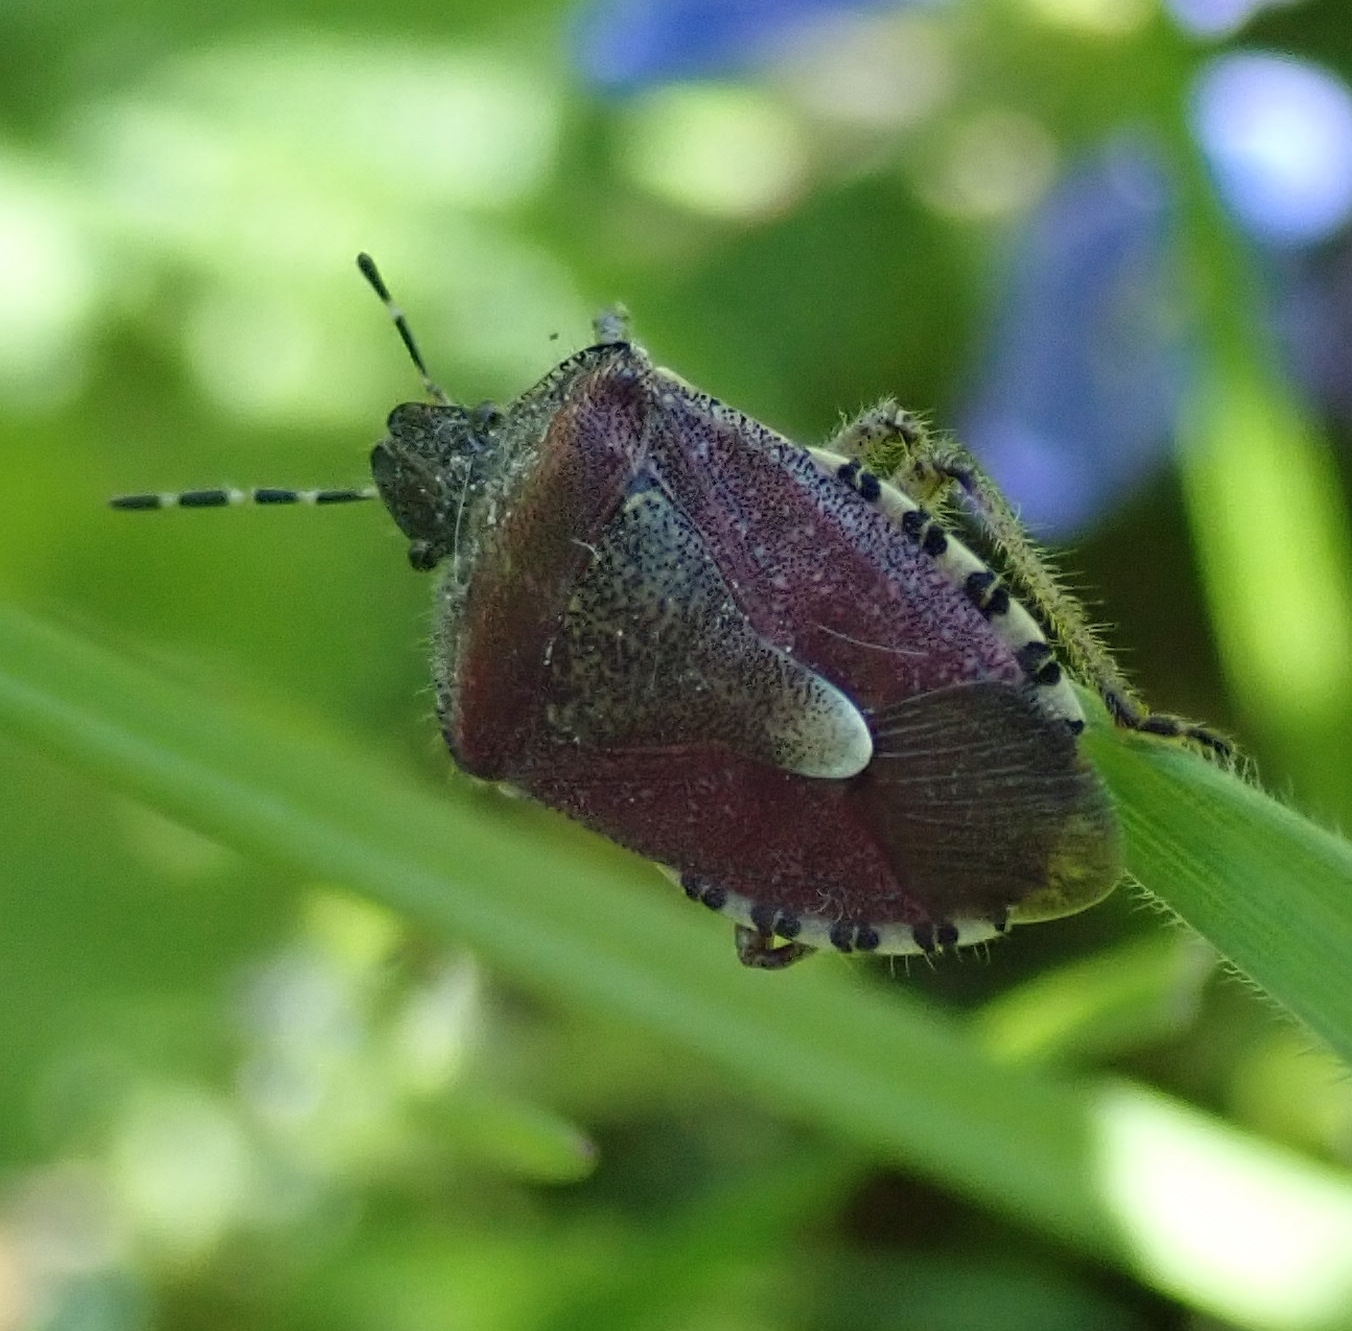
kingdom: Animalia
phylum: Arthropoda
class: Insecta
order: Hemiptera
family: Pentatomidae
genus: Dolycoris
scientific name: Dolycoris baccarum
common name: Sloe bug
